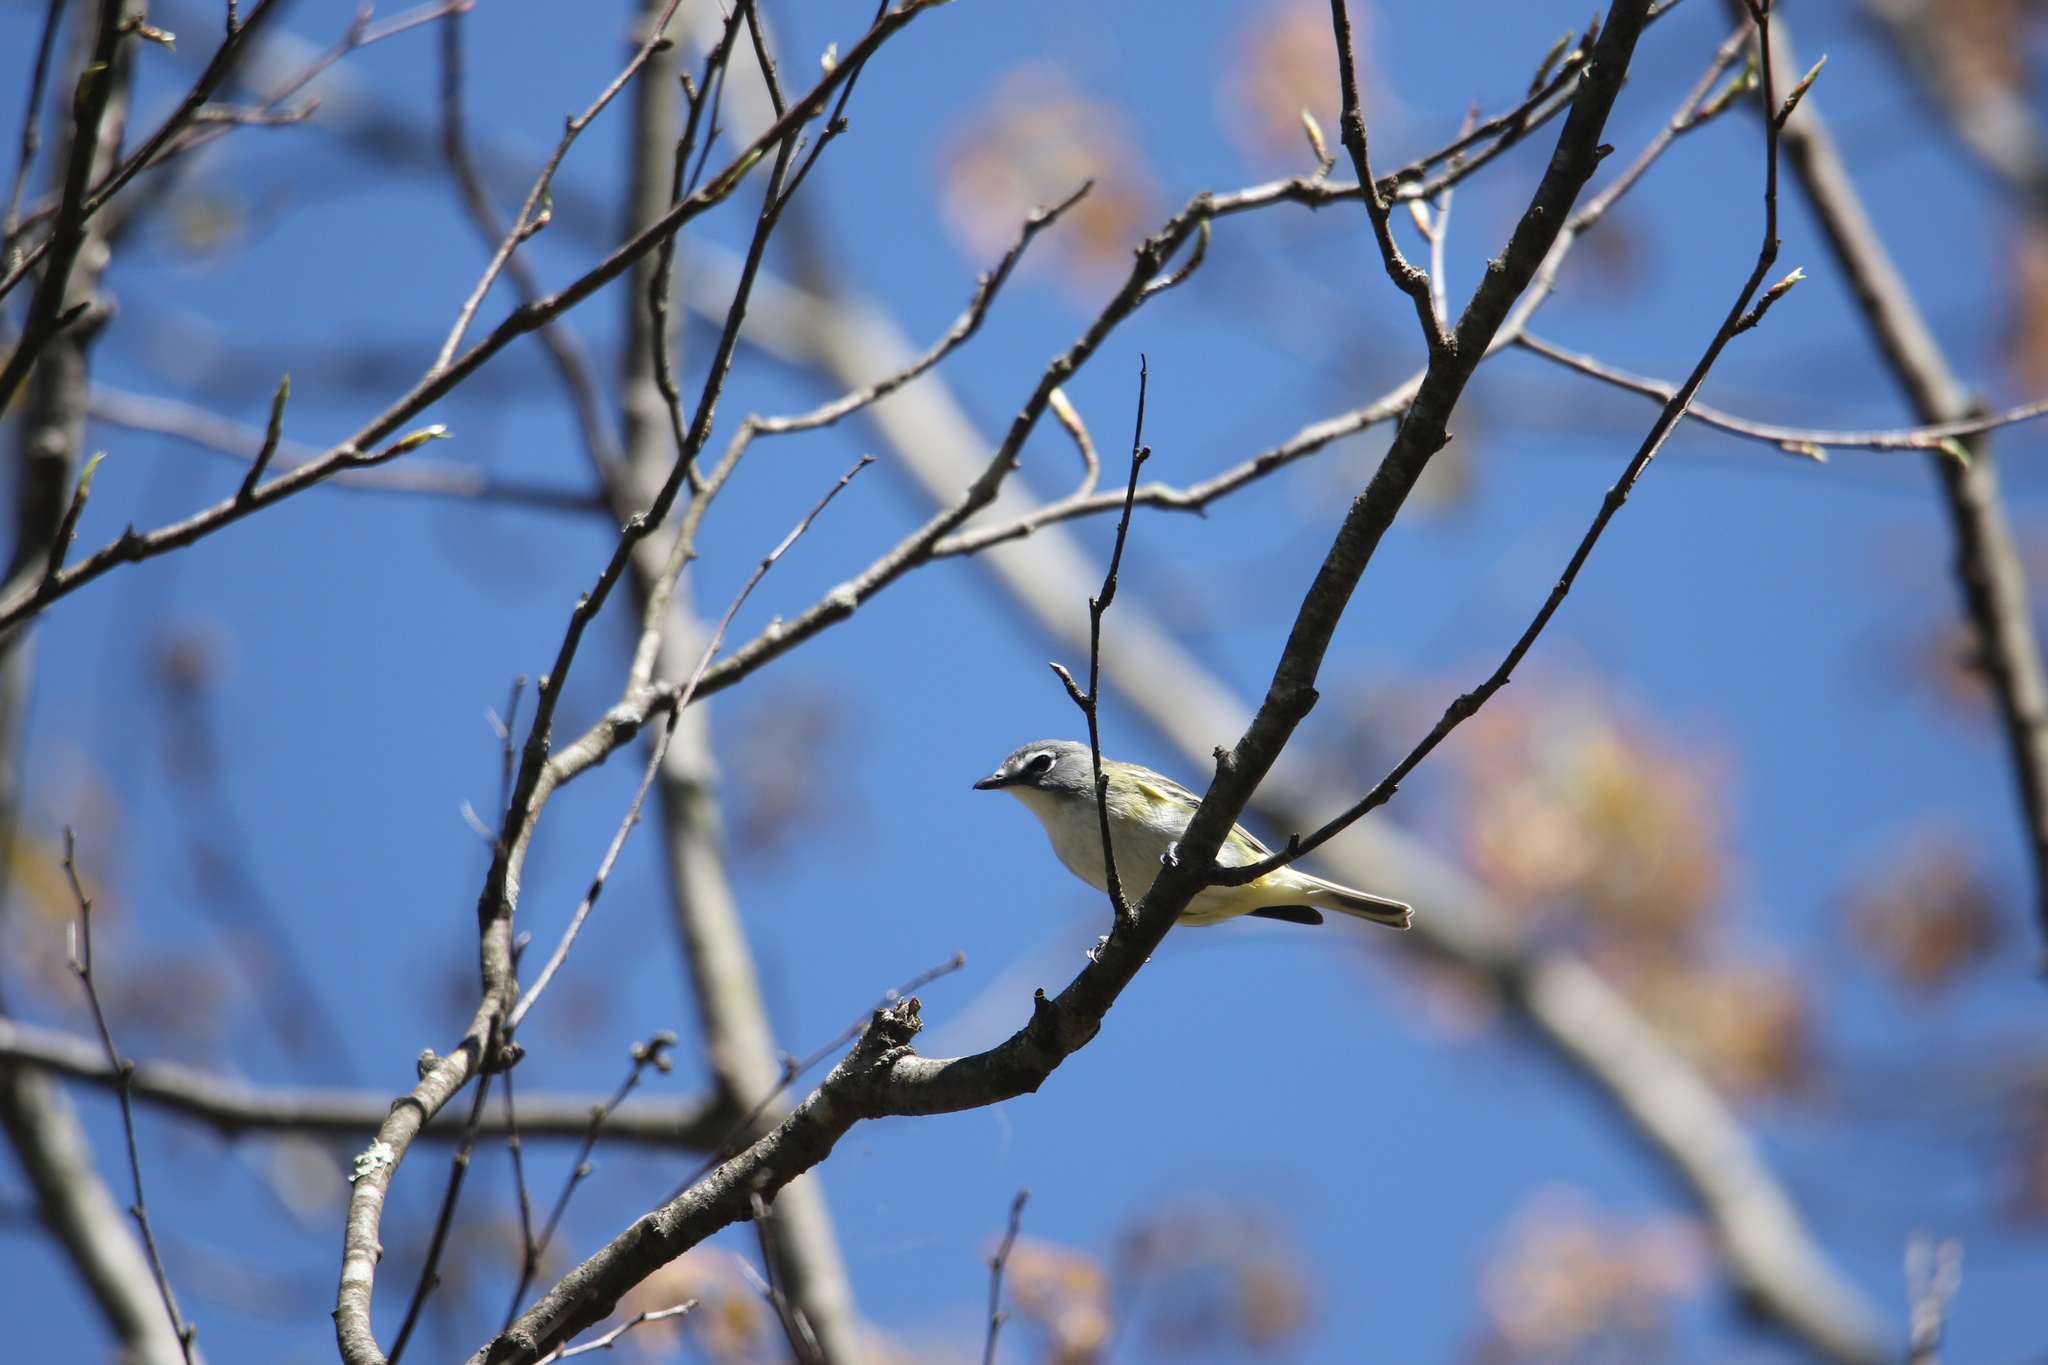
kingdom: Animalia
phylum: Chordata
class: Aves
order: Passeriformes
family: Vireonidae
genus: Vireo
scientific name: Vireo solitarius
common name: Blue-headed vireo
